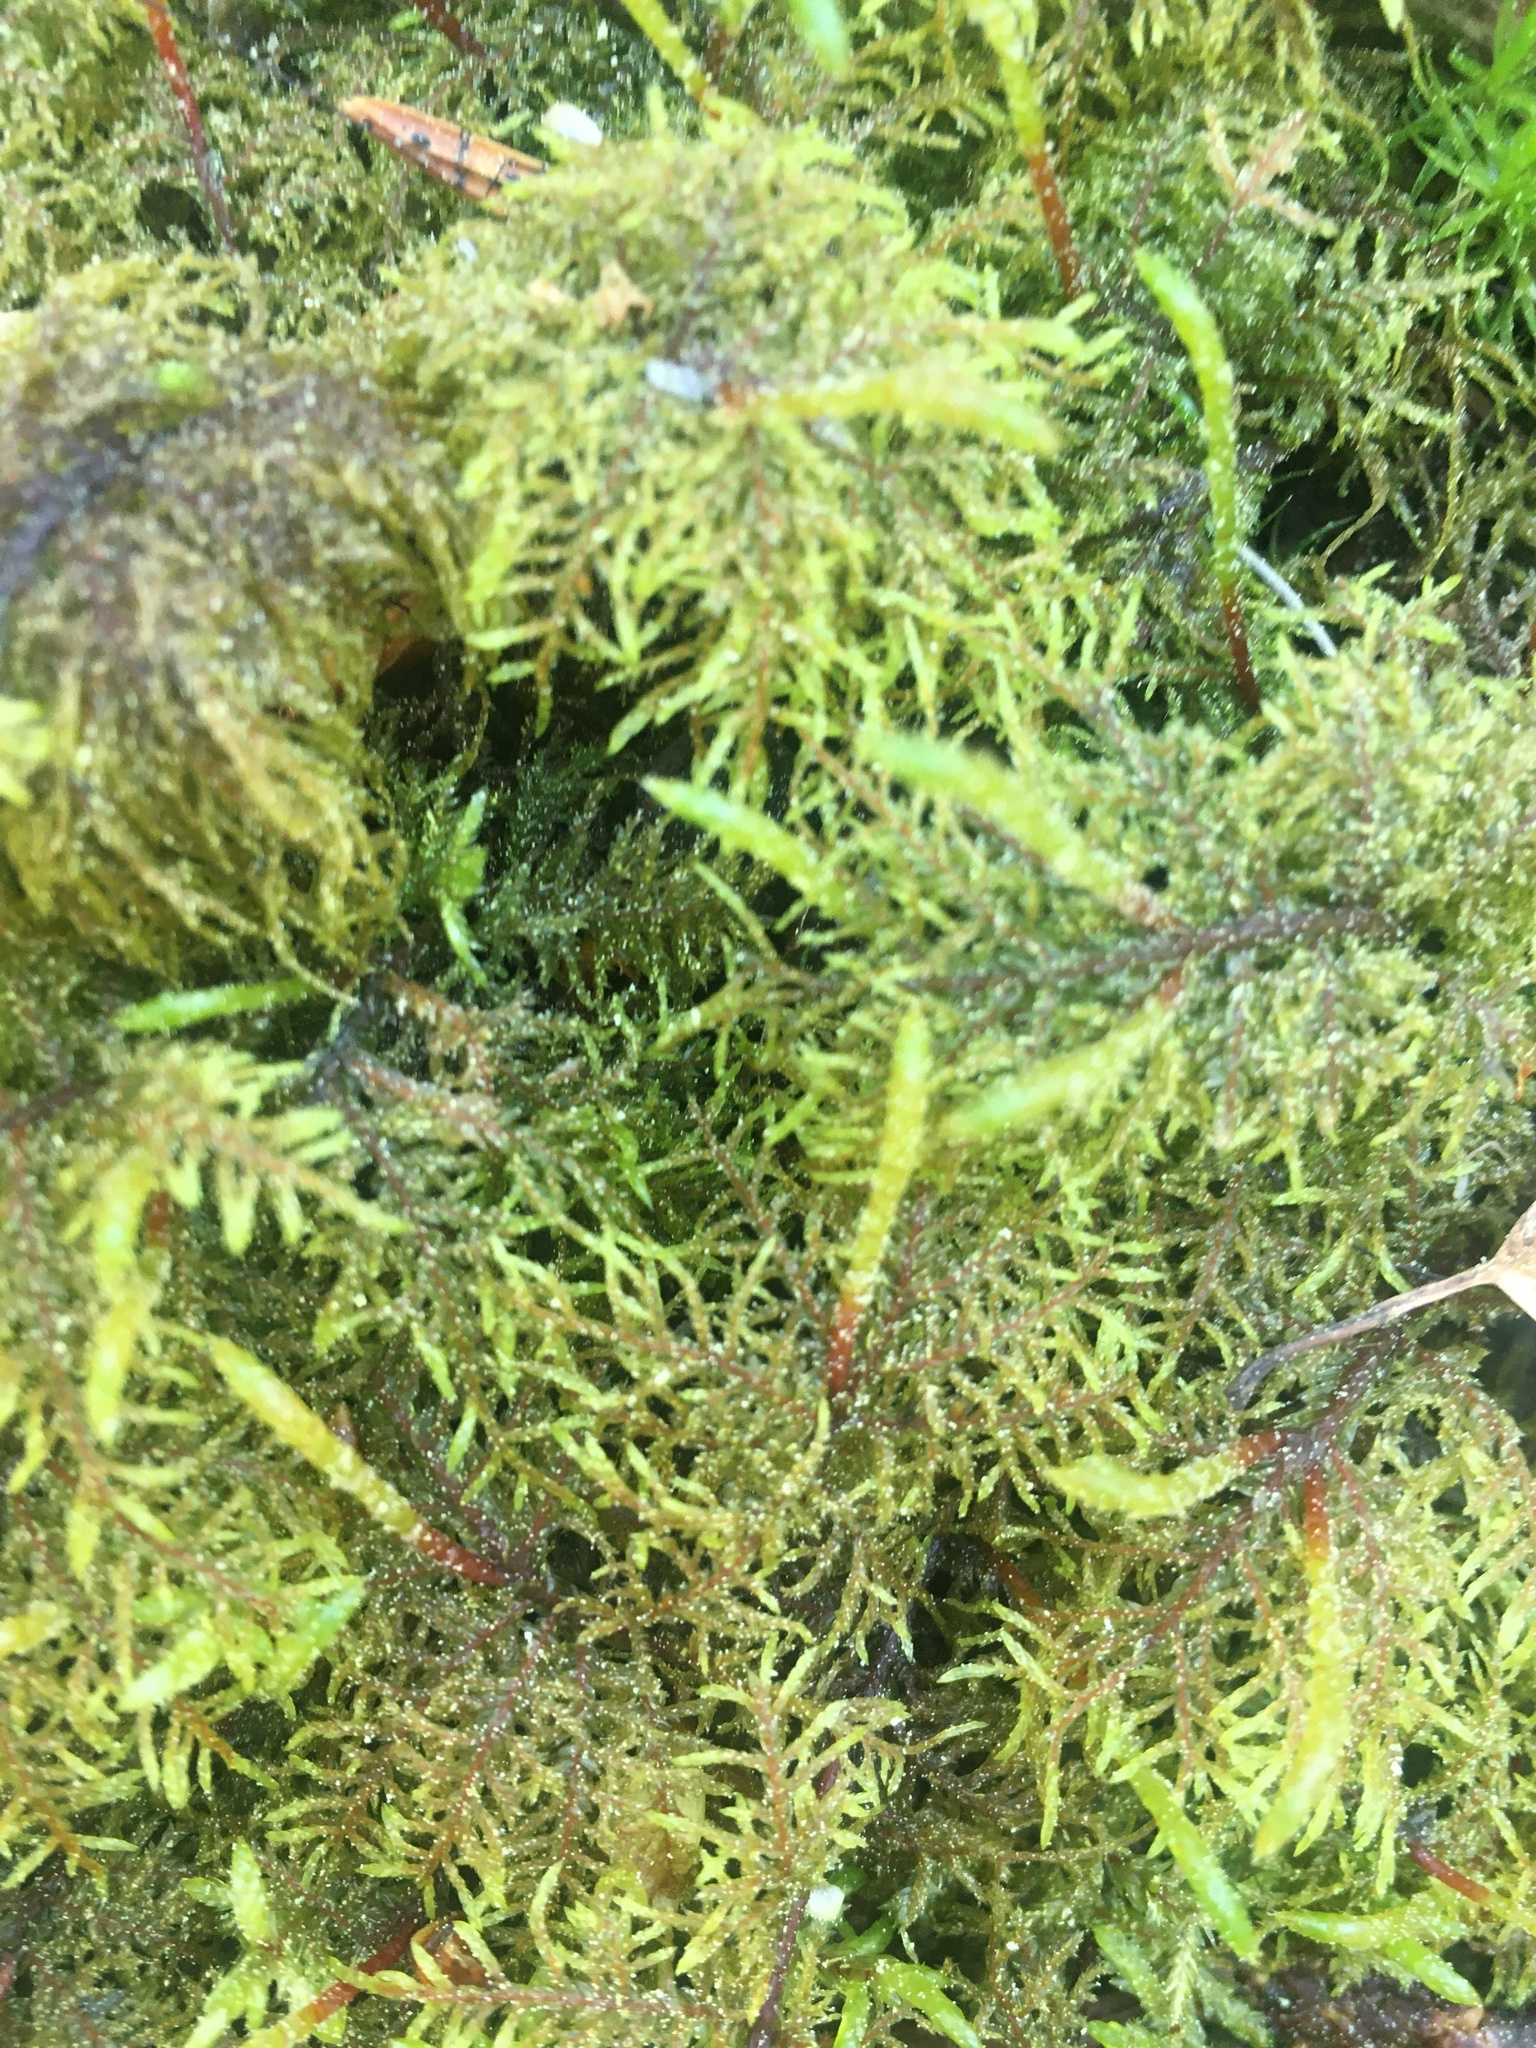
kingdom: Plantae
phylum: Bryophyta
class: Bryopsida
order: Hypnales
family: Hylocomiaceae
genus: Hylocomium
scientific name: Hylocomium splendens
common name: Stairstep moss
